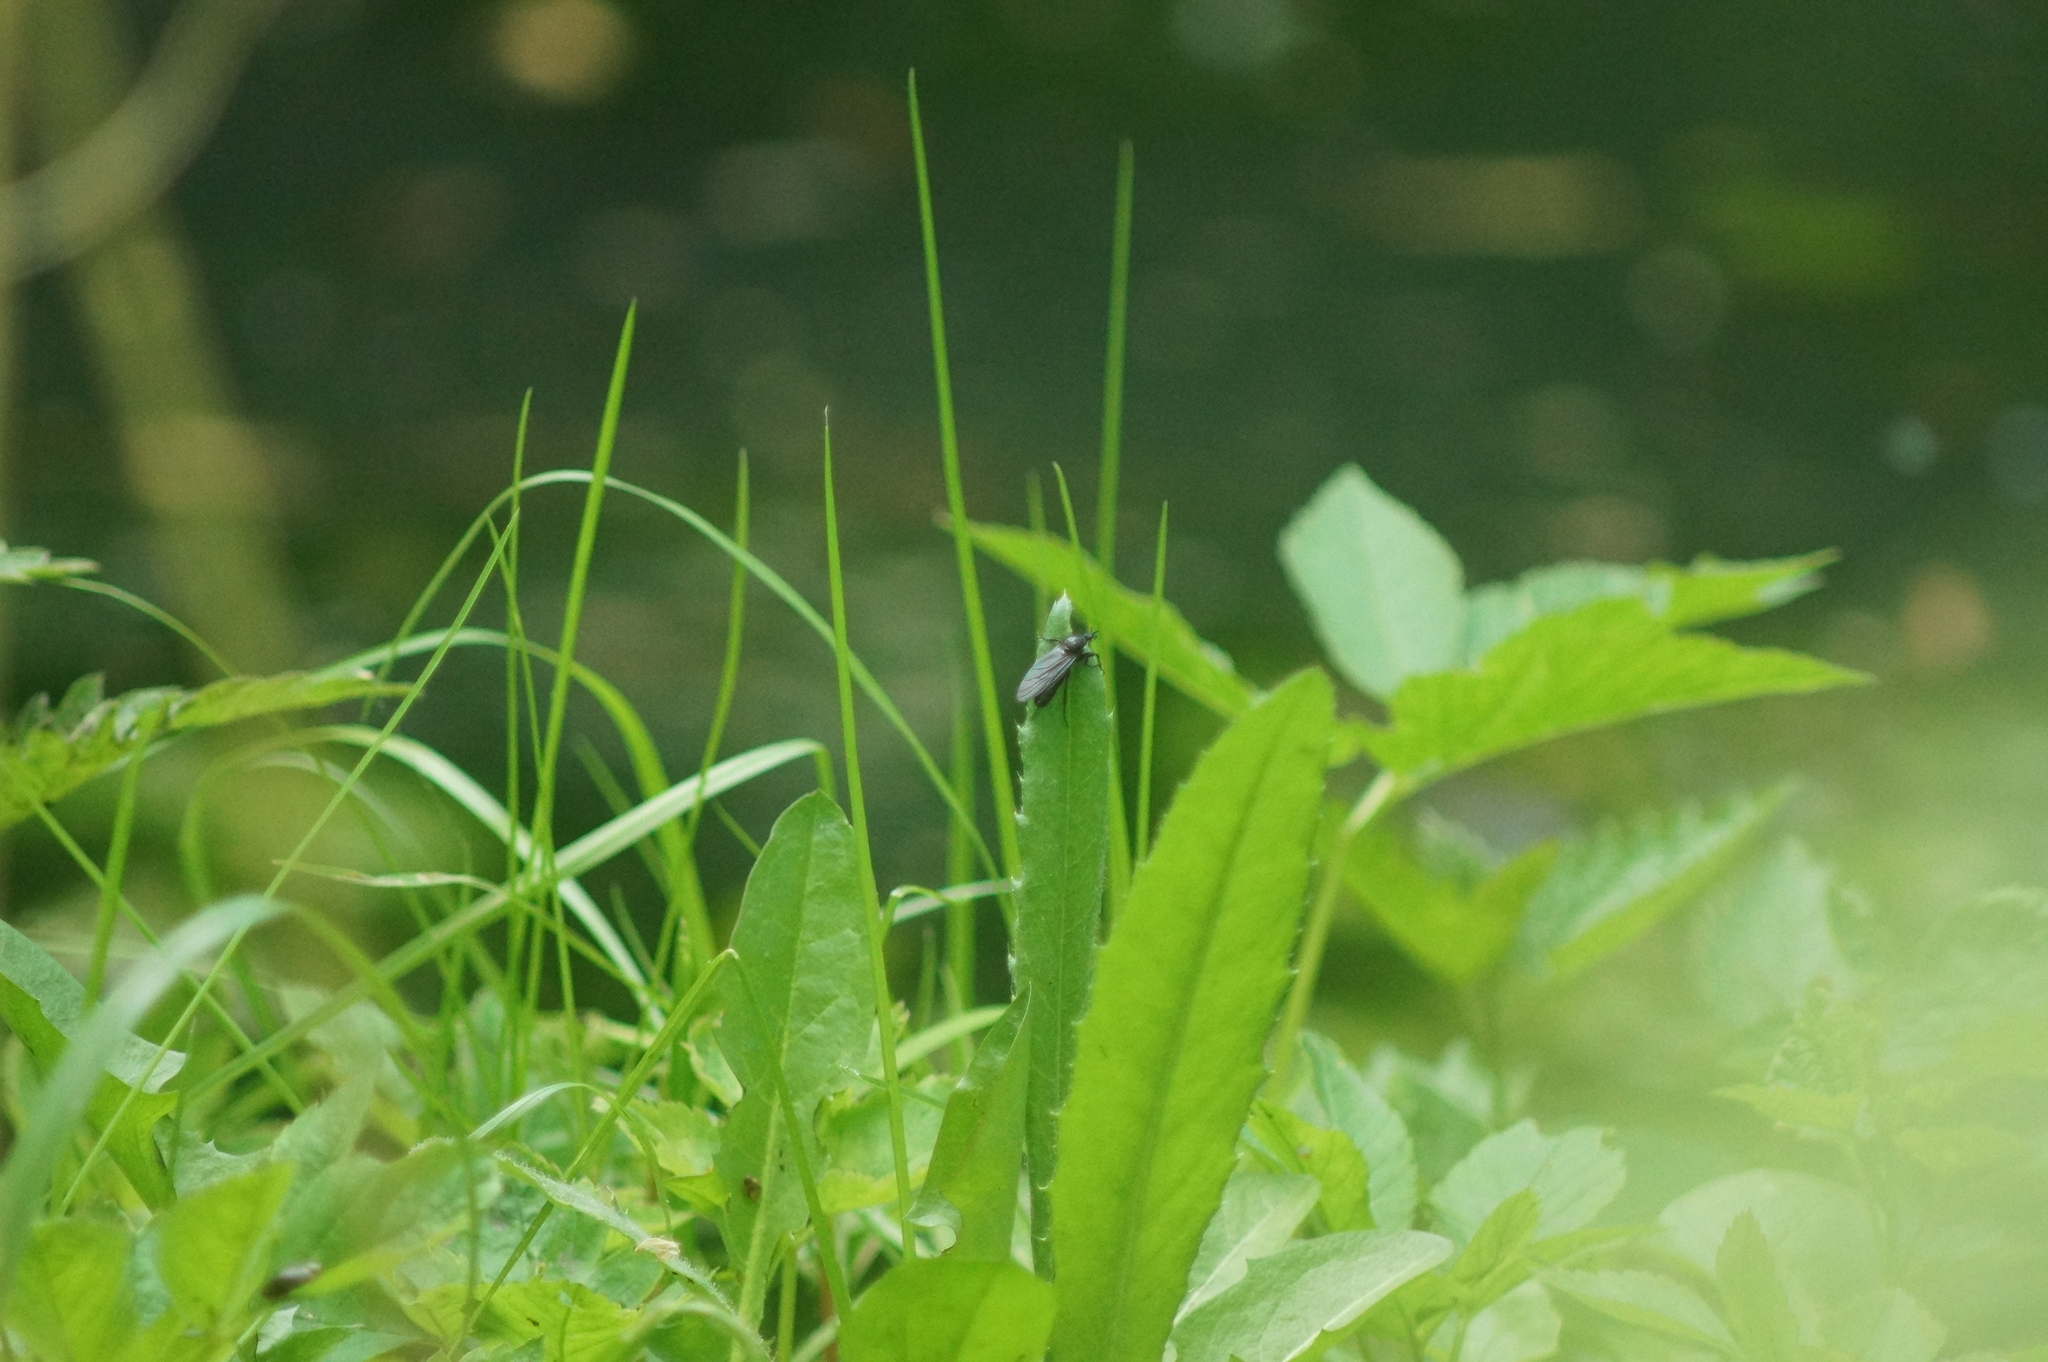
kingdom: Animalia
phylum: Arthropoda
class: Insecta
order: Diptera
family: Bibionidae
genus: Bibio
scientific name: Bibio marci
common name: St marks fly
